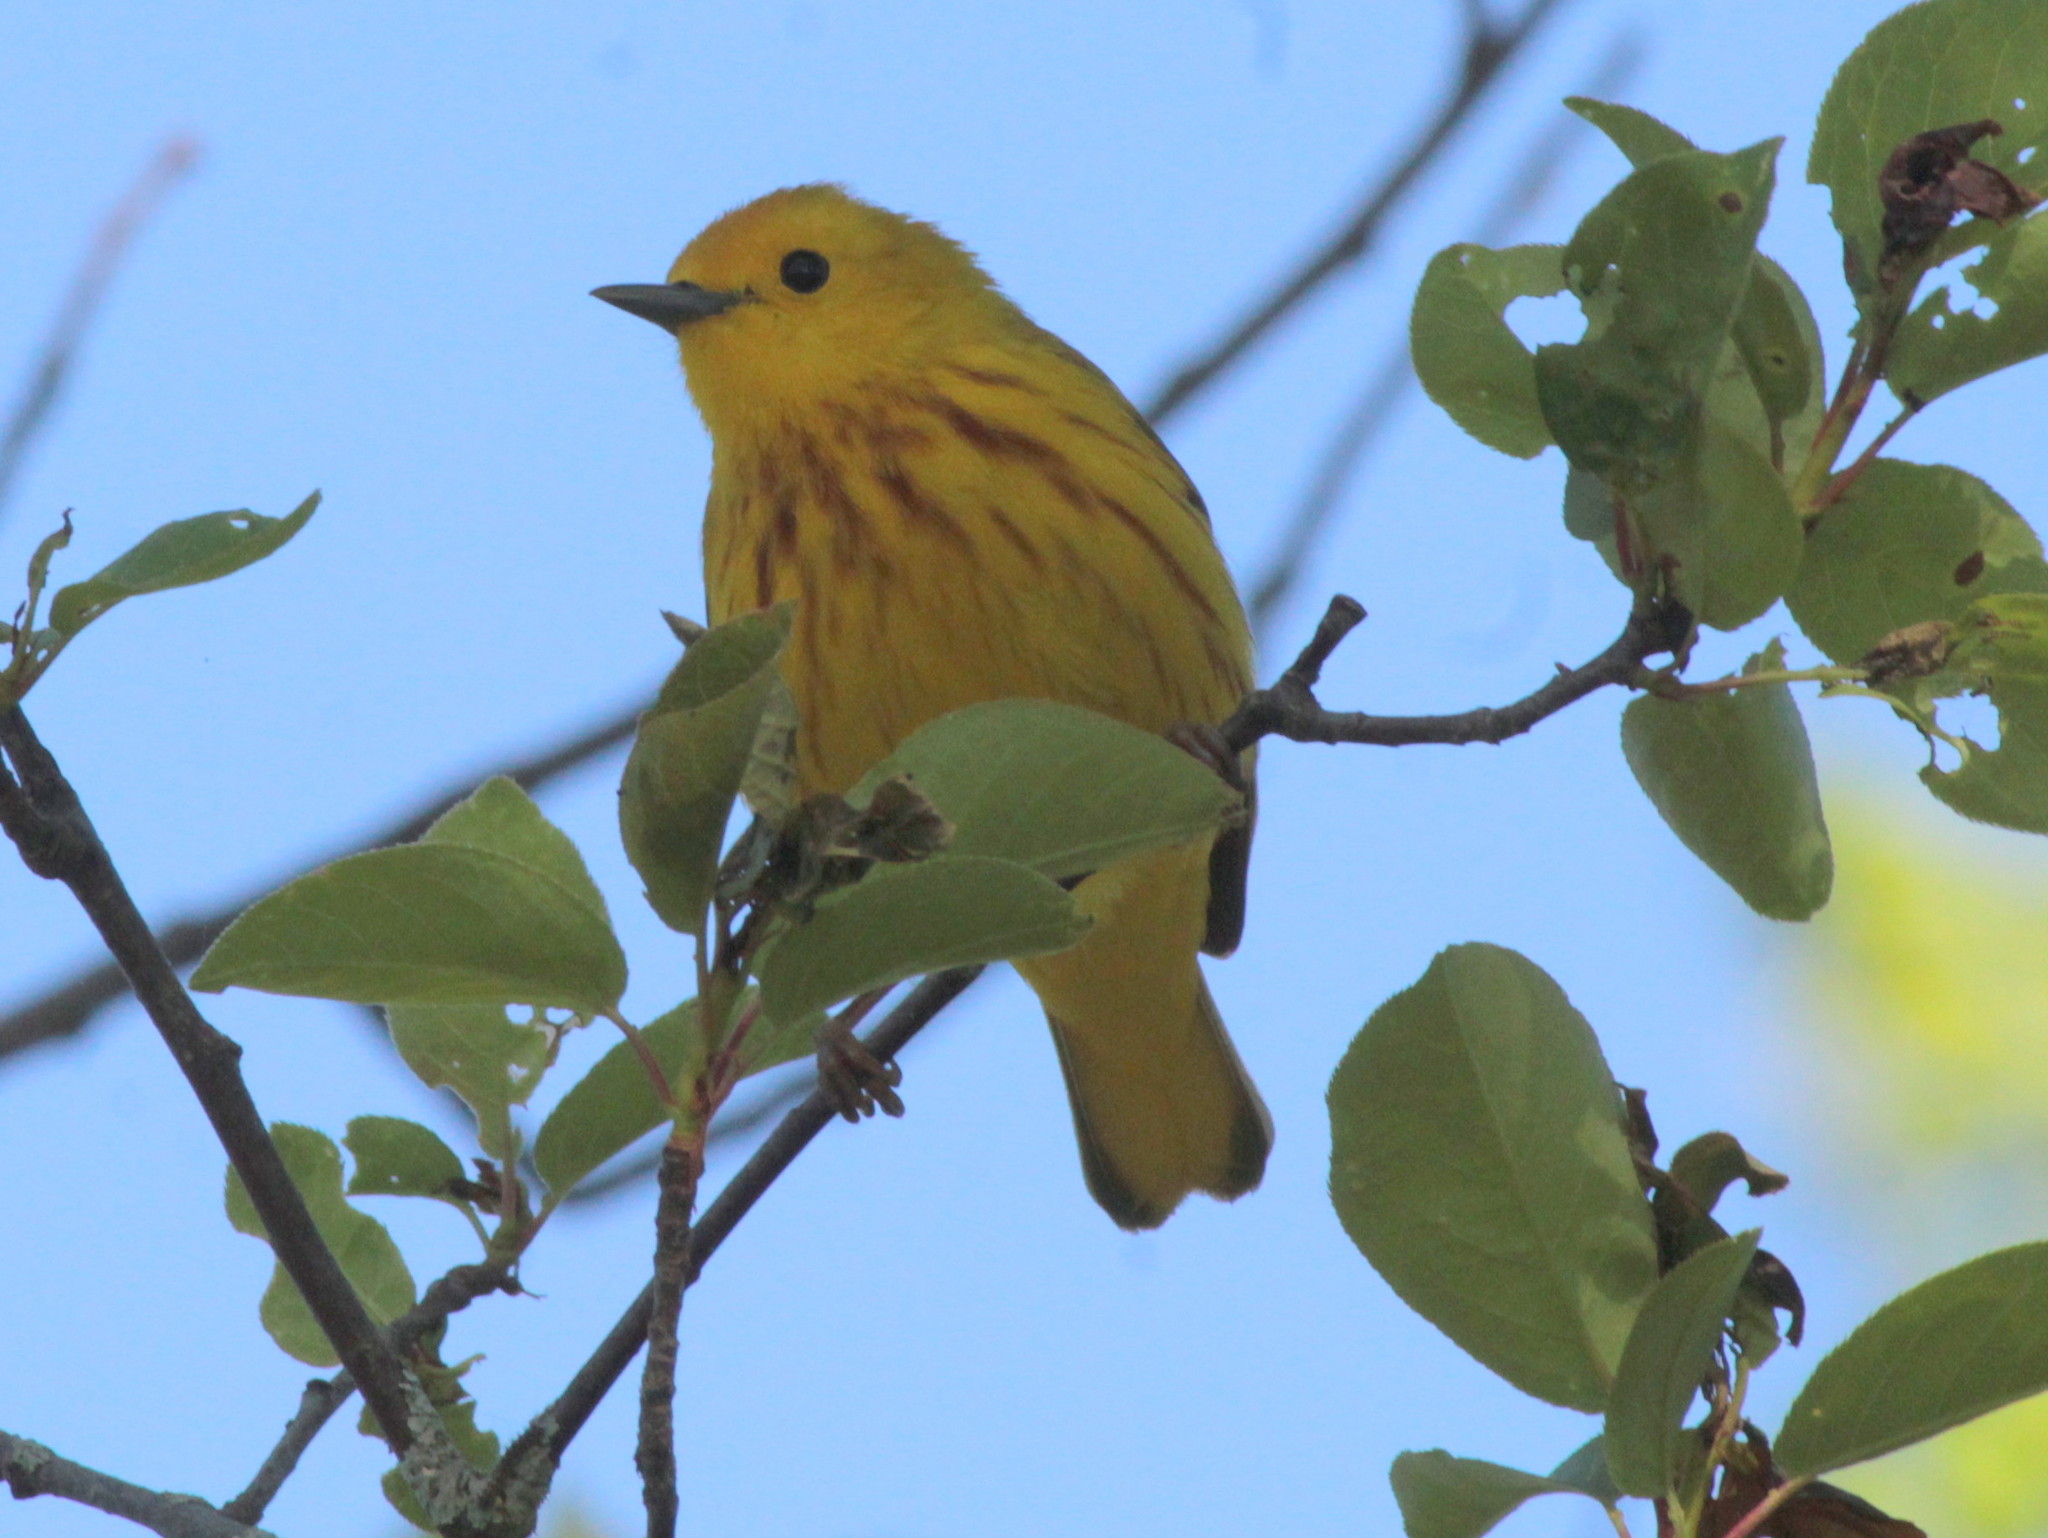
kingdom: Animalia
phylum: Chordata
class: Aves
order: Passeriformes
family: Parulidae
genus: Setophaga
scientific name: Setophaga petechia
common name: Yellow warbler
